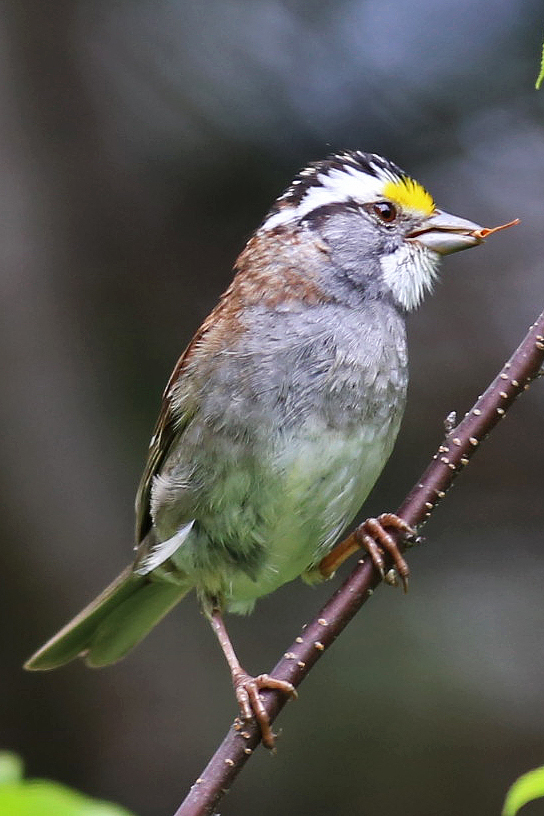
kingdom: Animalia
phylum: Chordata
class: Aves
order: Passeriformes
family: Passerellidae
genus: Zonotrichia
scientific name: Zonotrichia albicollis
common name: White-throated sparrow
